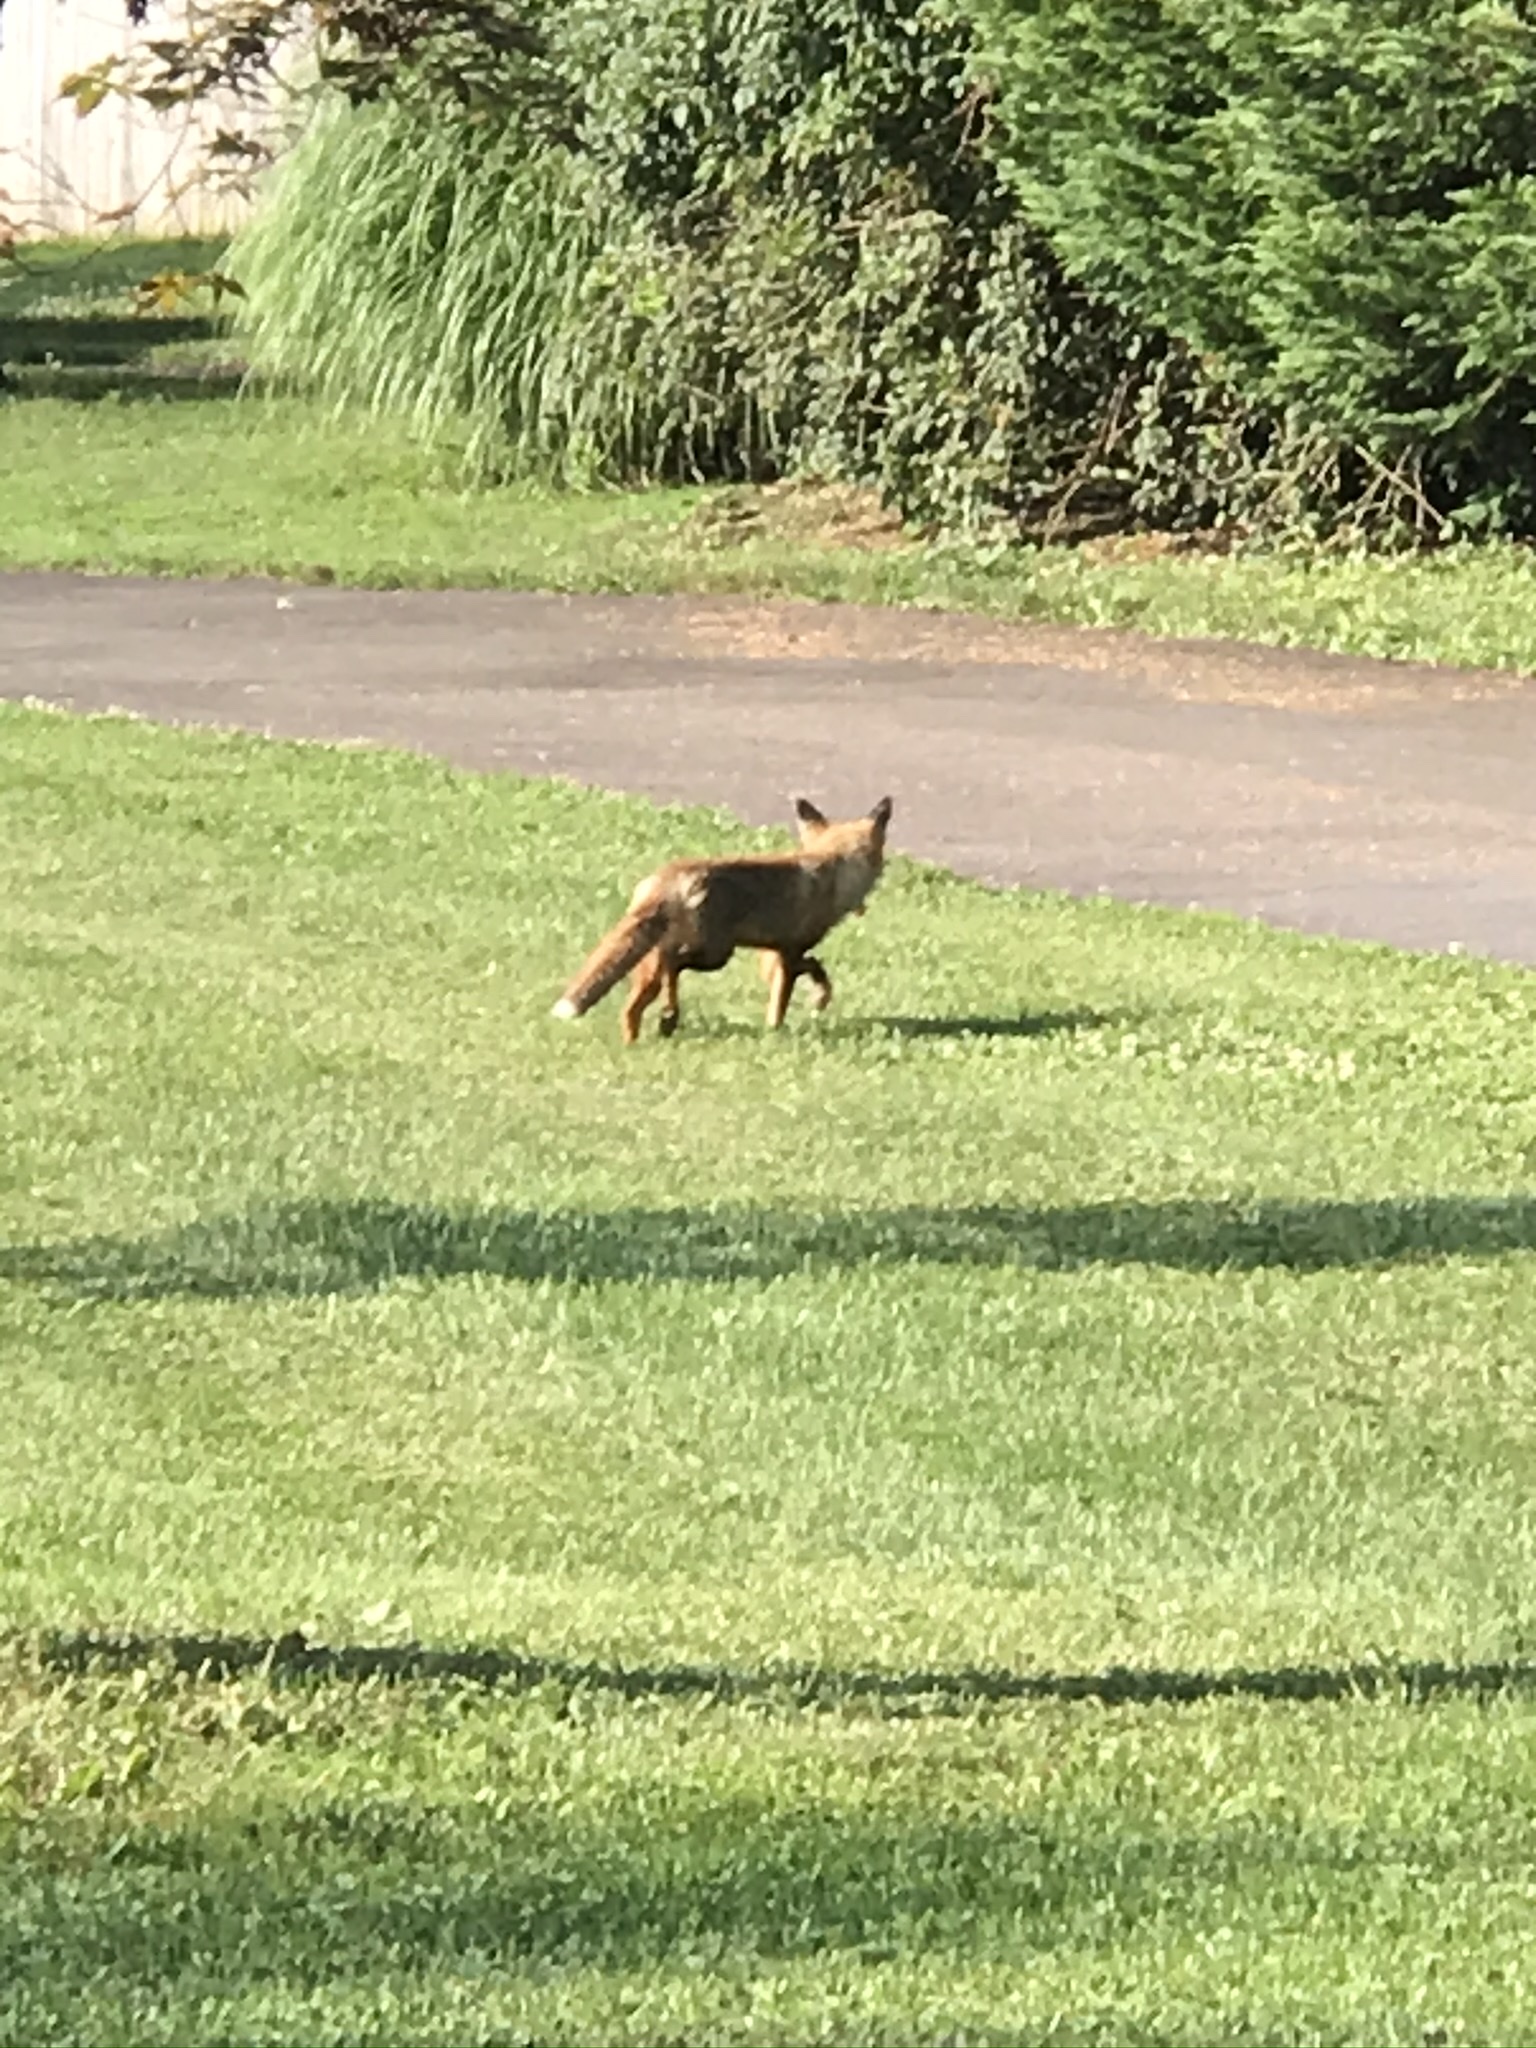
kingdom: Animalia
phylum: Chordata
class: Mammalia
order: Carnivora
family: Canidae
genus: Vulpes
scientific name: Vulpes vulpes
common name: Red fox
